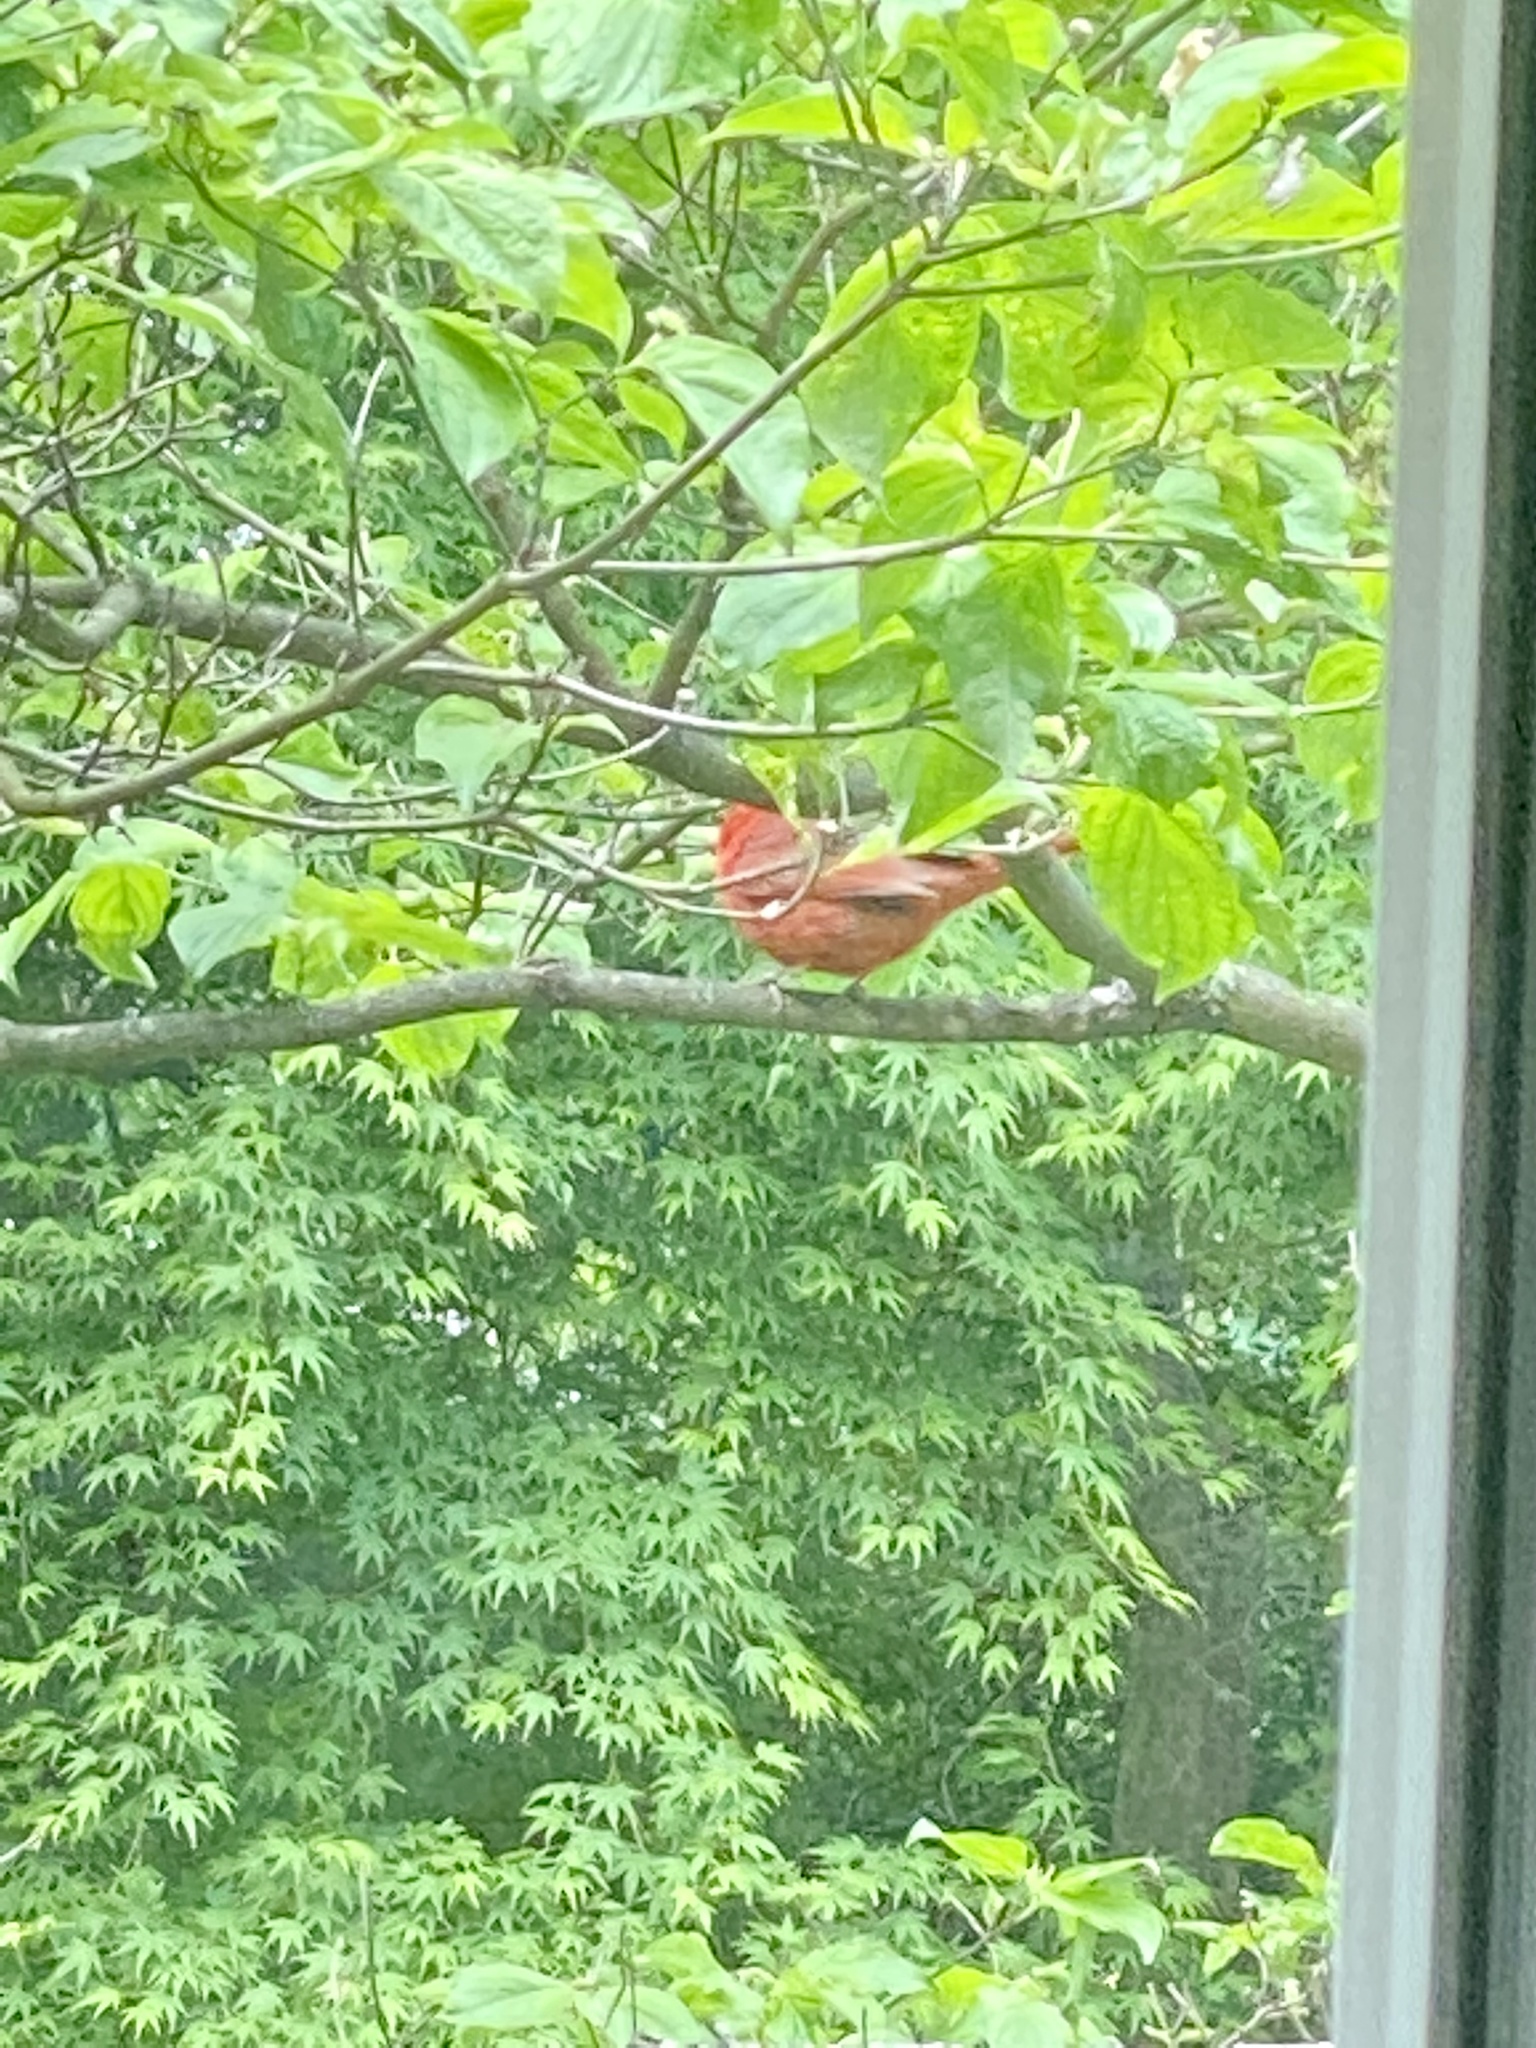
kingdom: Animalia
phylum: Chordata
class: Aves
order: Passeriformes
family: Cardinalidae
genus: Cardinalis
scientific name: Cardinalis cardinalis
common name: Northern cardinal
